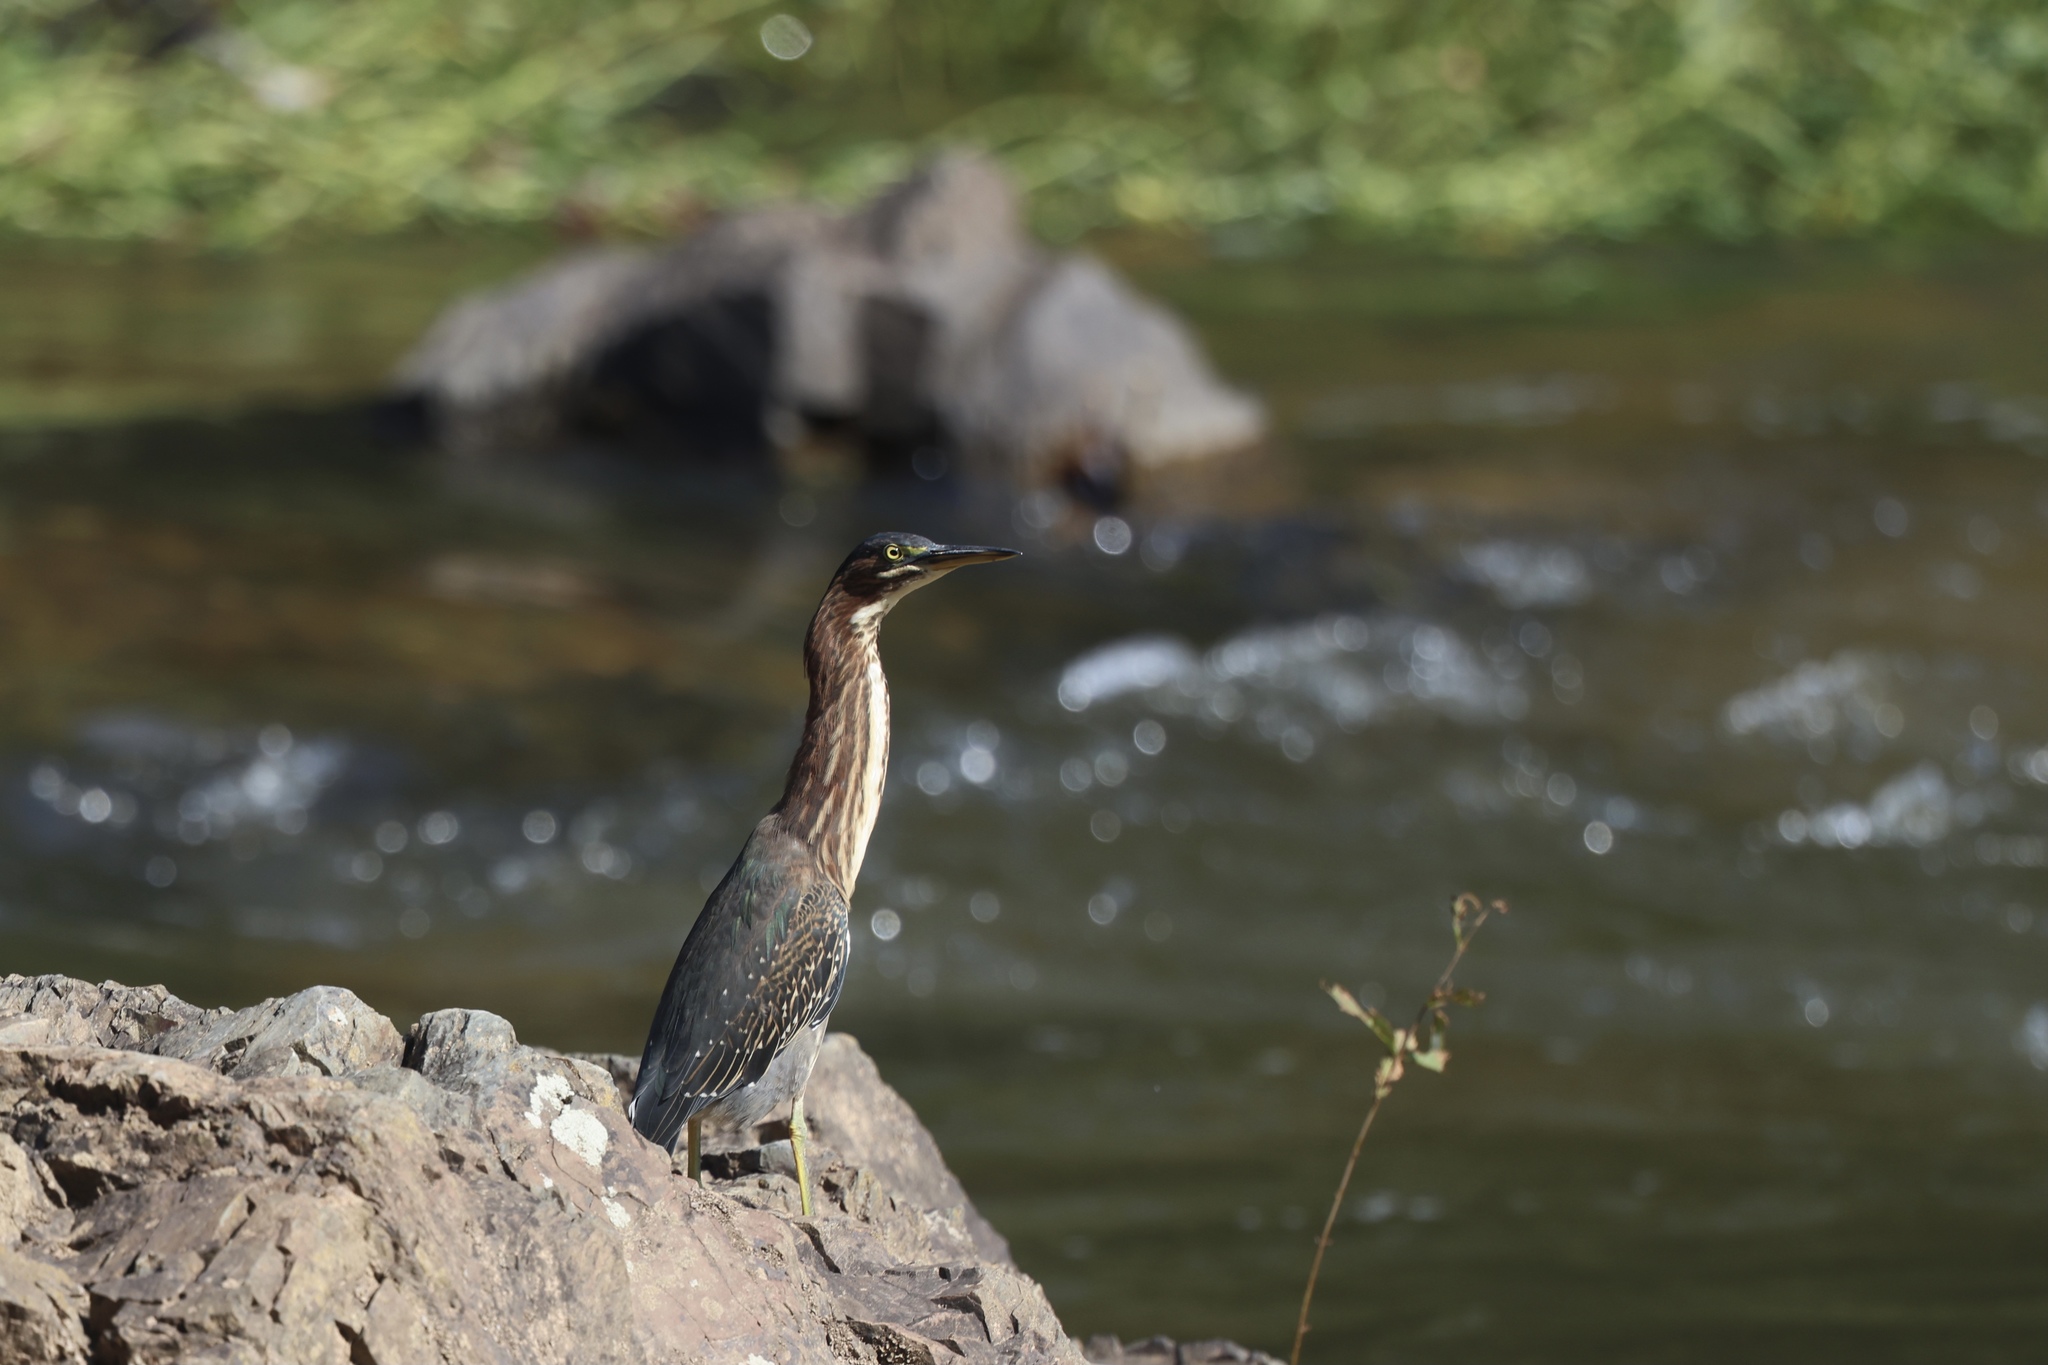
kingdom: Animalia
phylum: Chordata
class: Aves
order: Pelecaniformes
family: Ardeidae
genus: Butorides
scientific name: Butorides virescens
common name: Green heron
